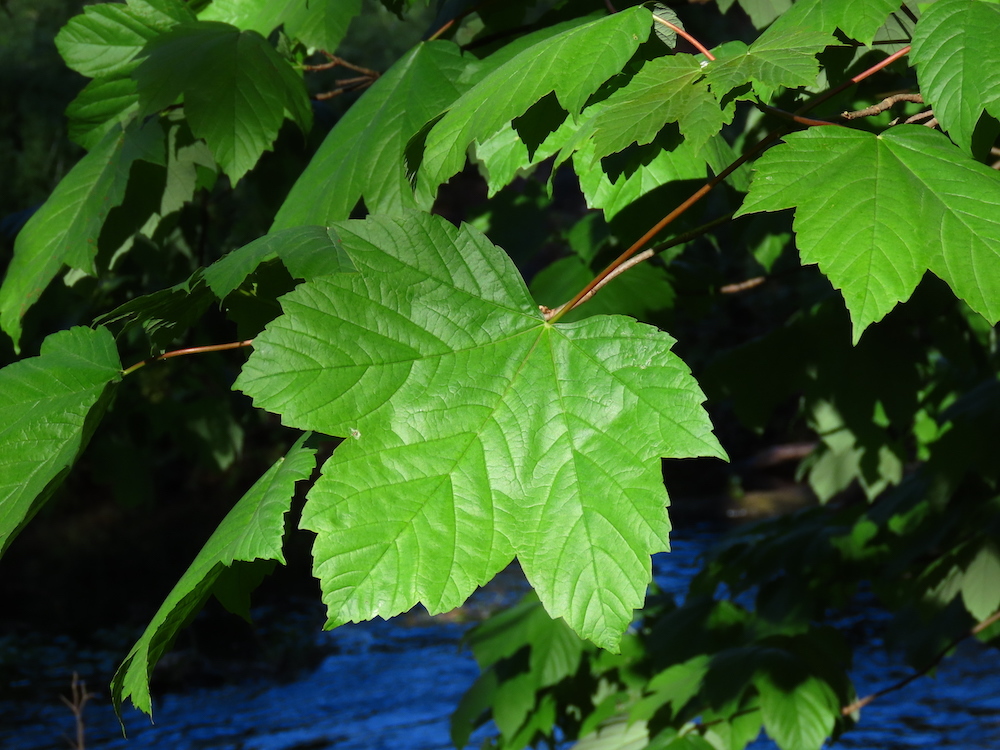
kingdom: Plantae
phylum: Tracheophyta
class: Magnoliopsida
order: Sapindales
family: Sapindaceae
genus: Acer
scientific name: Acer pseudoplatanus
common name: Sycamore
